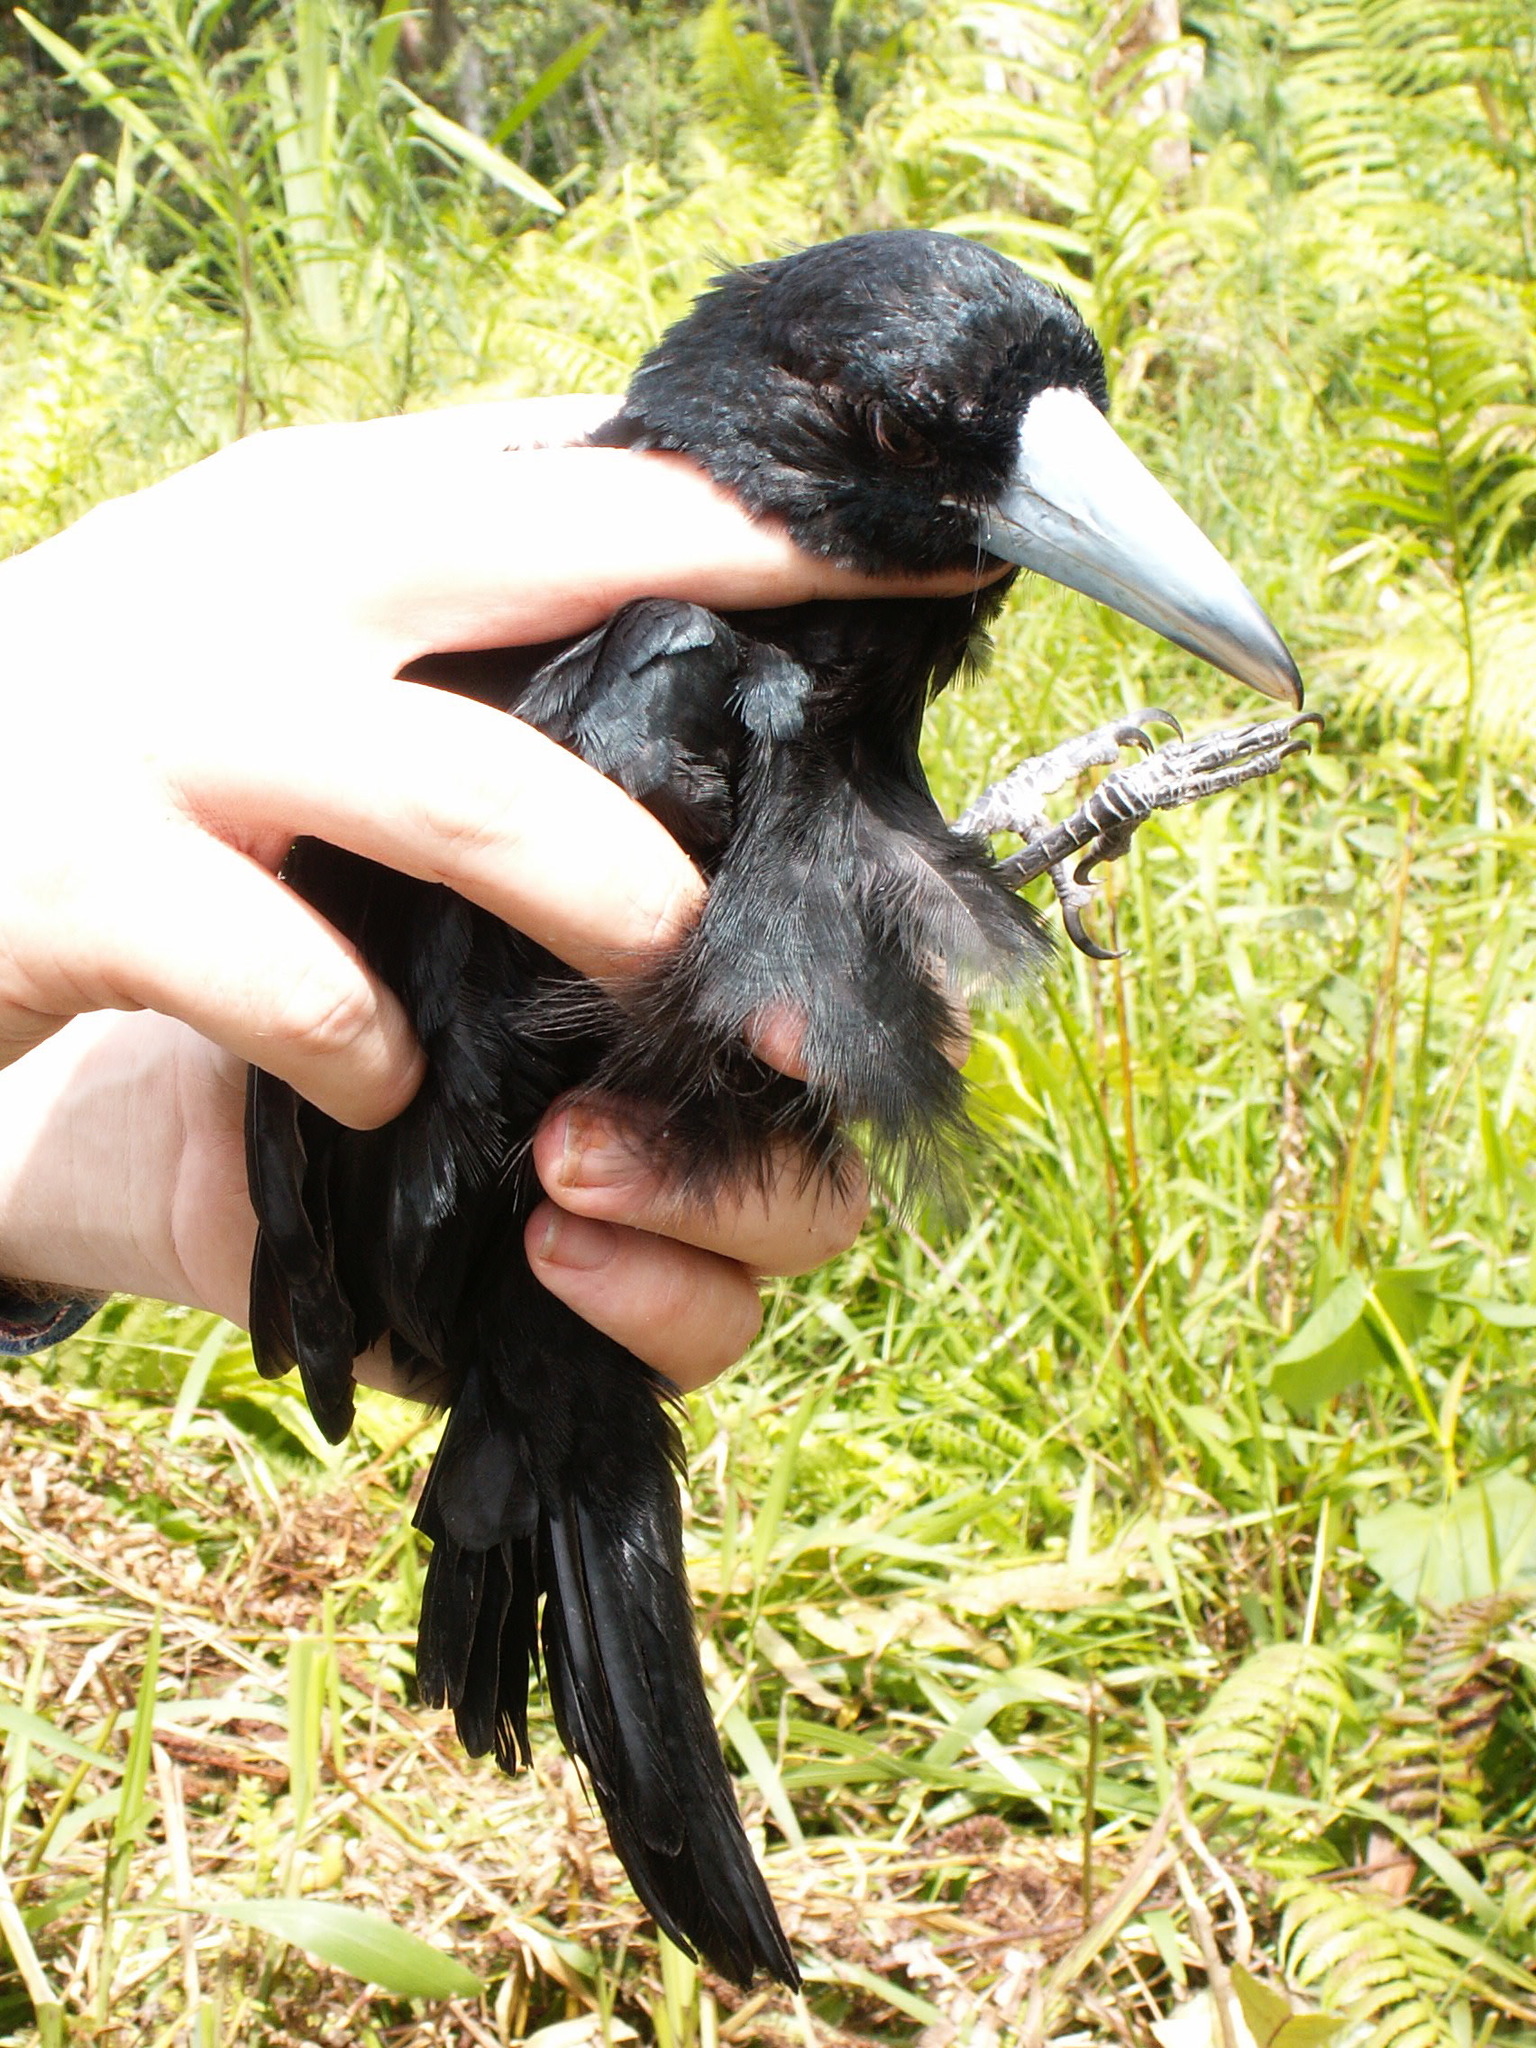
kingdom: Animalia
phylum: Chordata
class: Aves
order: Passeriformes
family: Artamidae
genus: Melloria
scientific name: Melloria quoyi
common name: Black butcherbird
